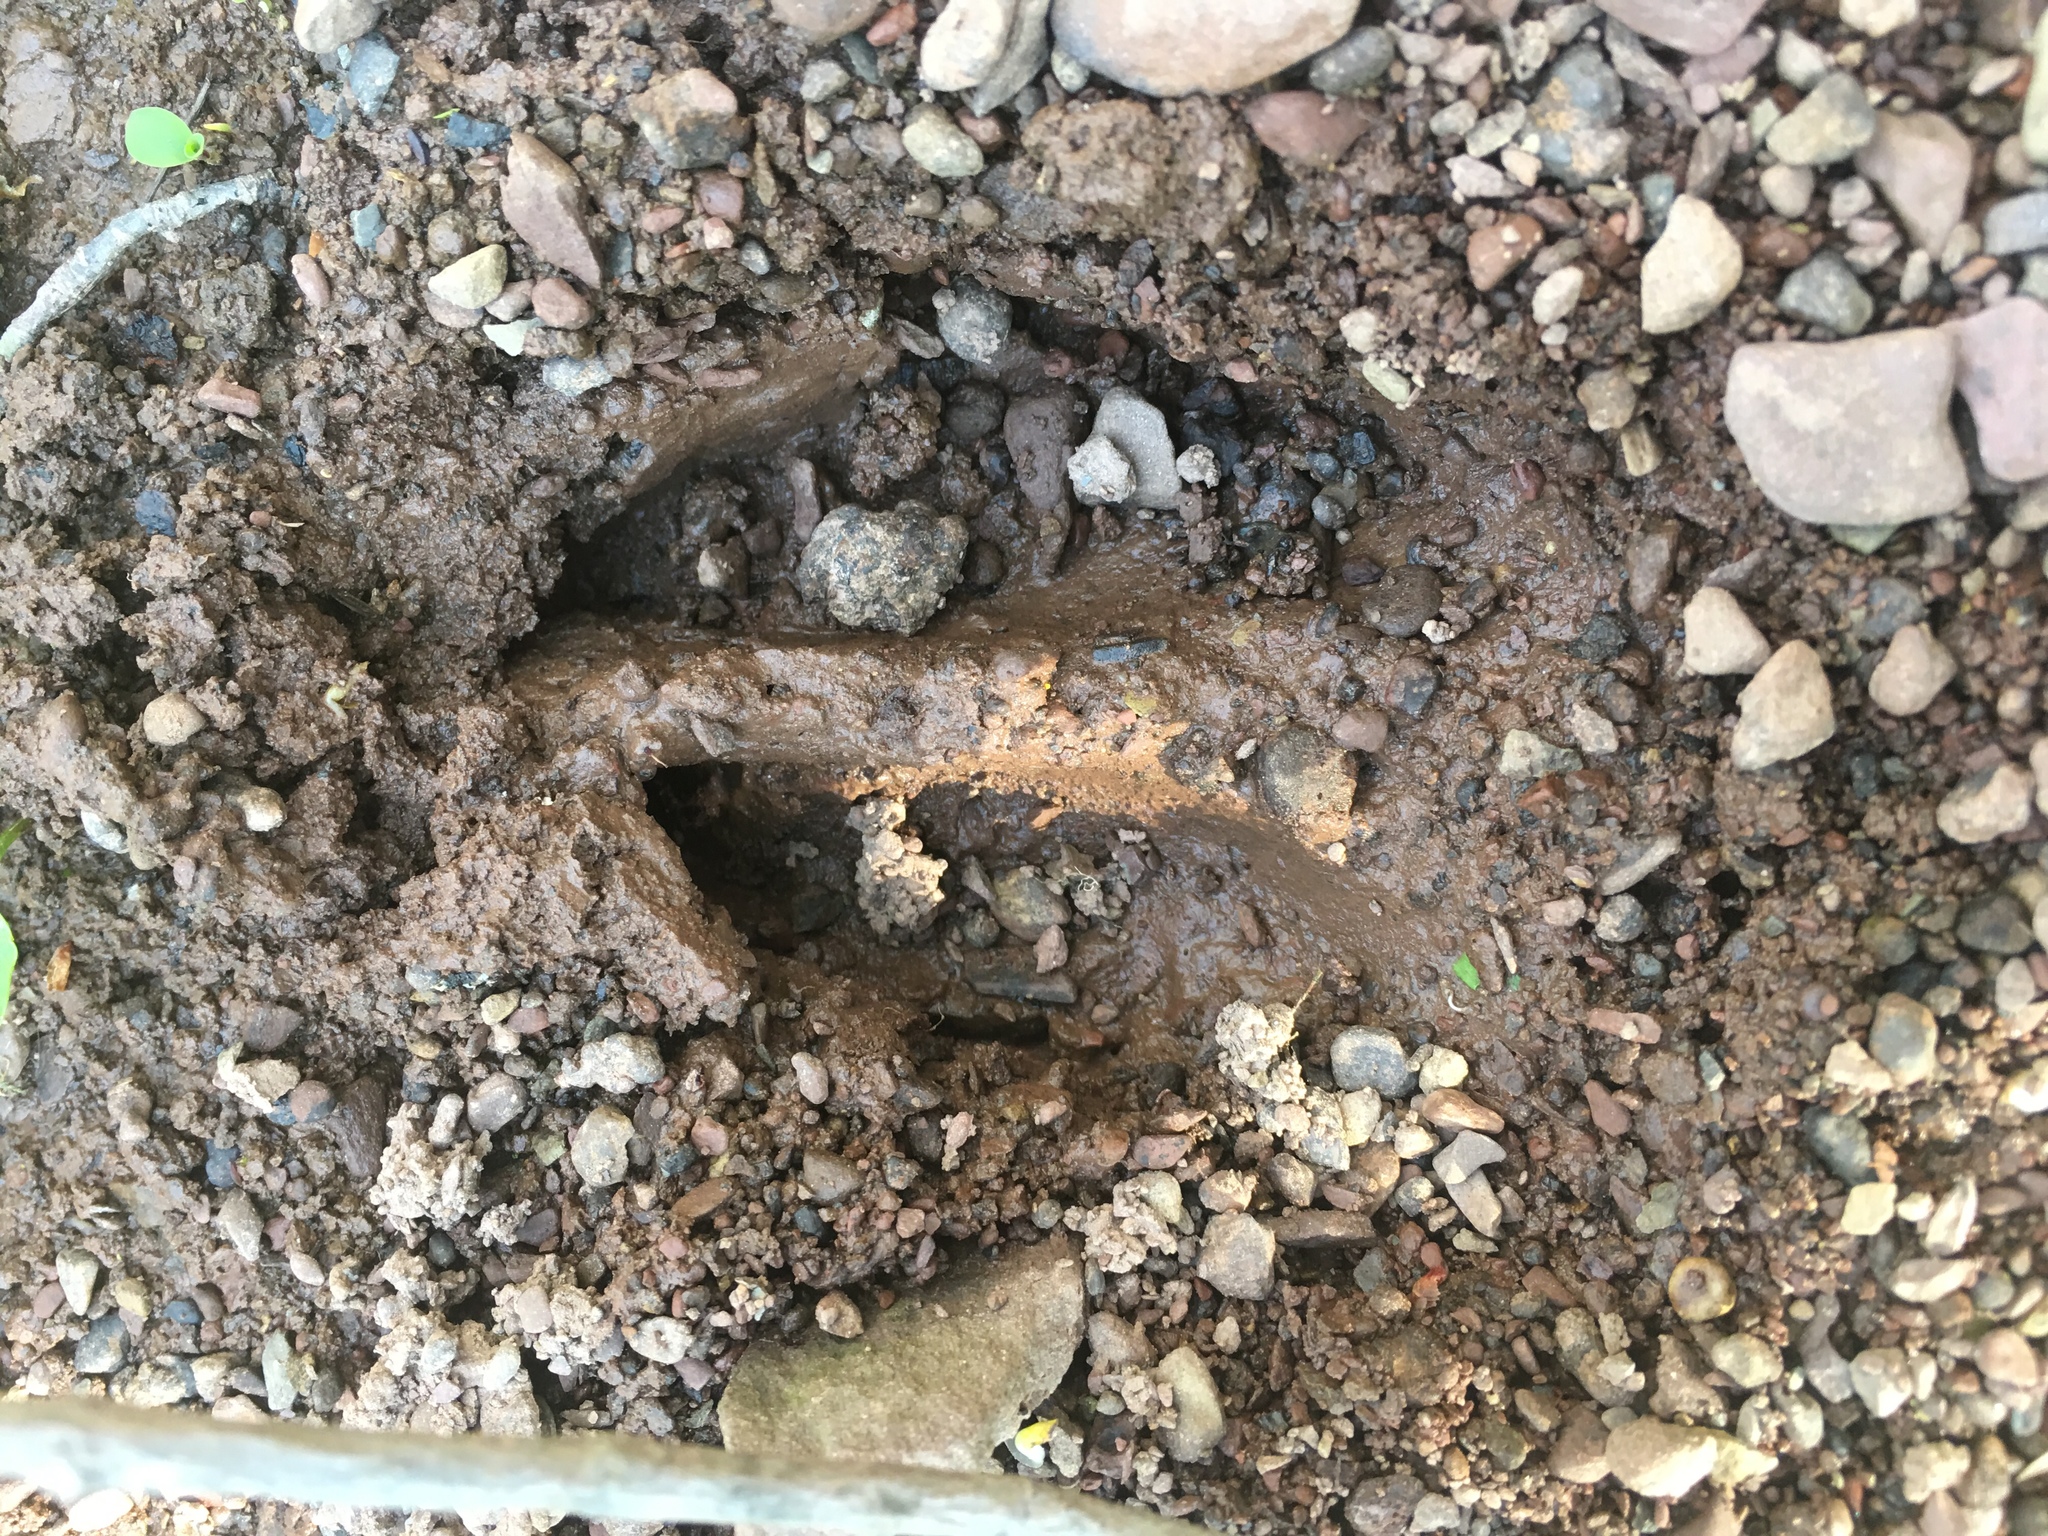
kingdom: Animalia
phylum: Chordata
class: Mammalia
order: Artiodactyla
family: Cervidae
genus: Odocoileus
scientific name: Odocoileus virginianus
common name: White-tailed deer
